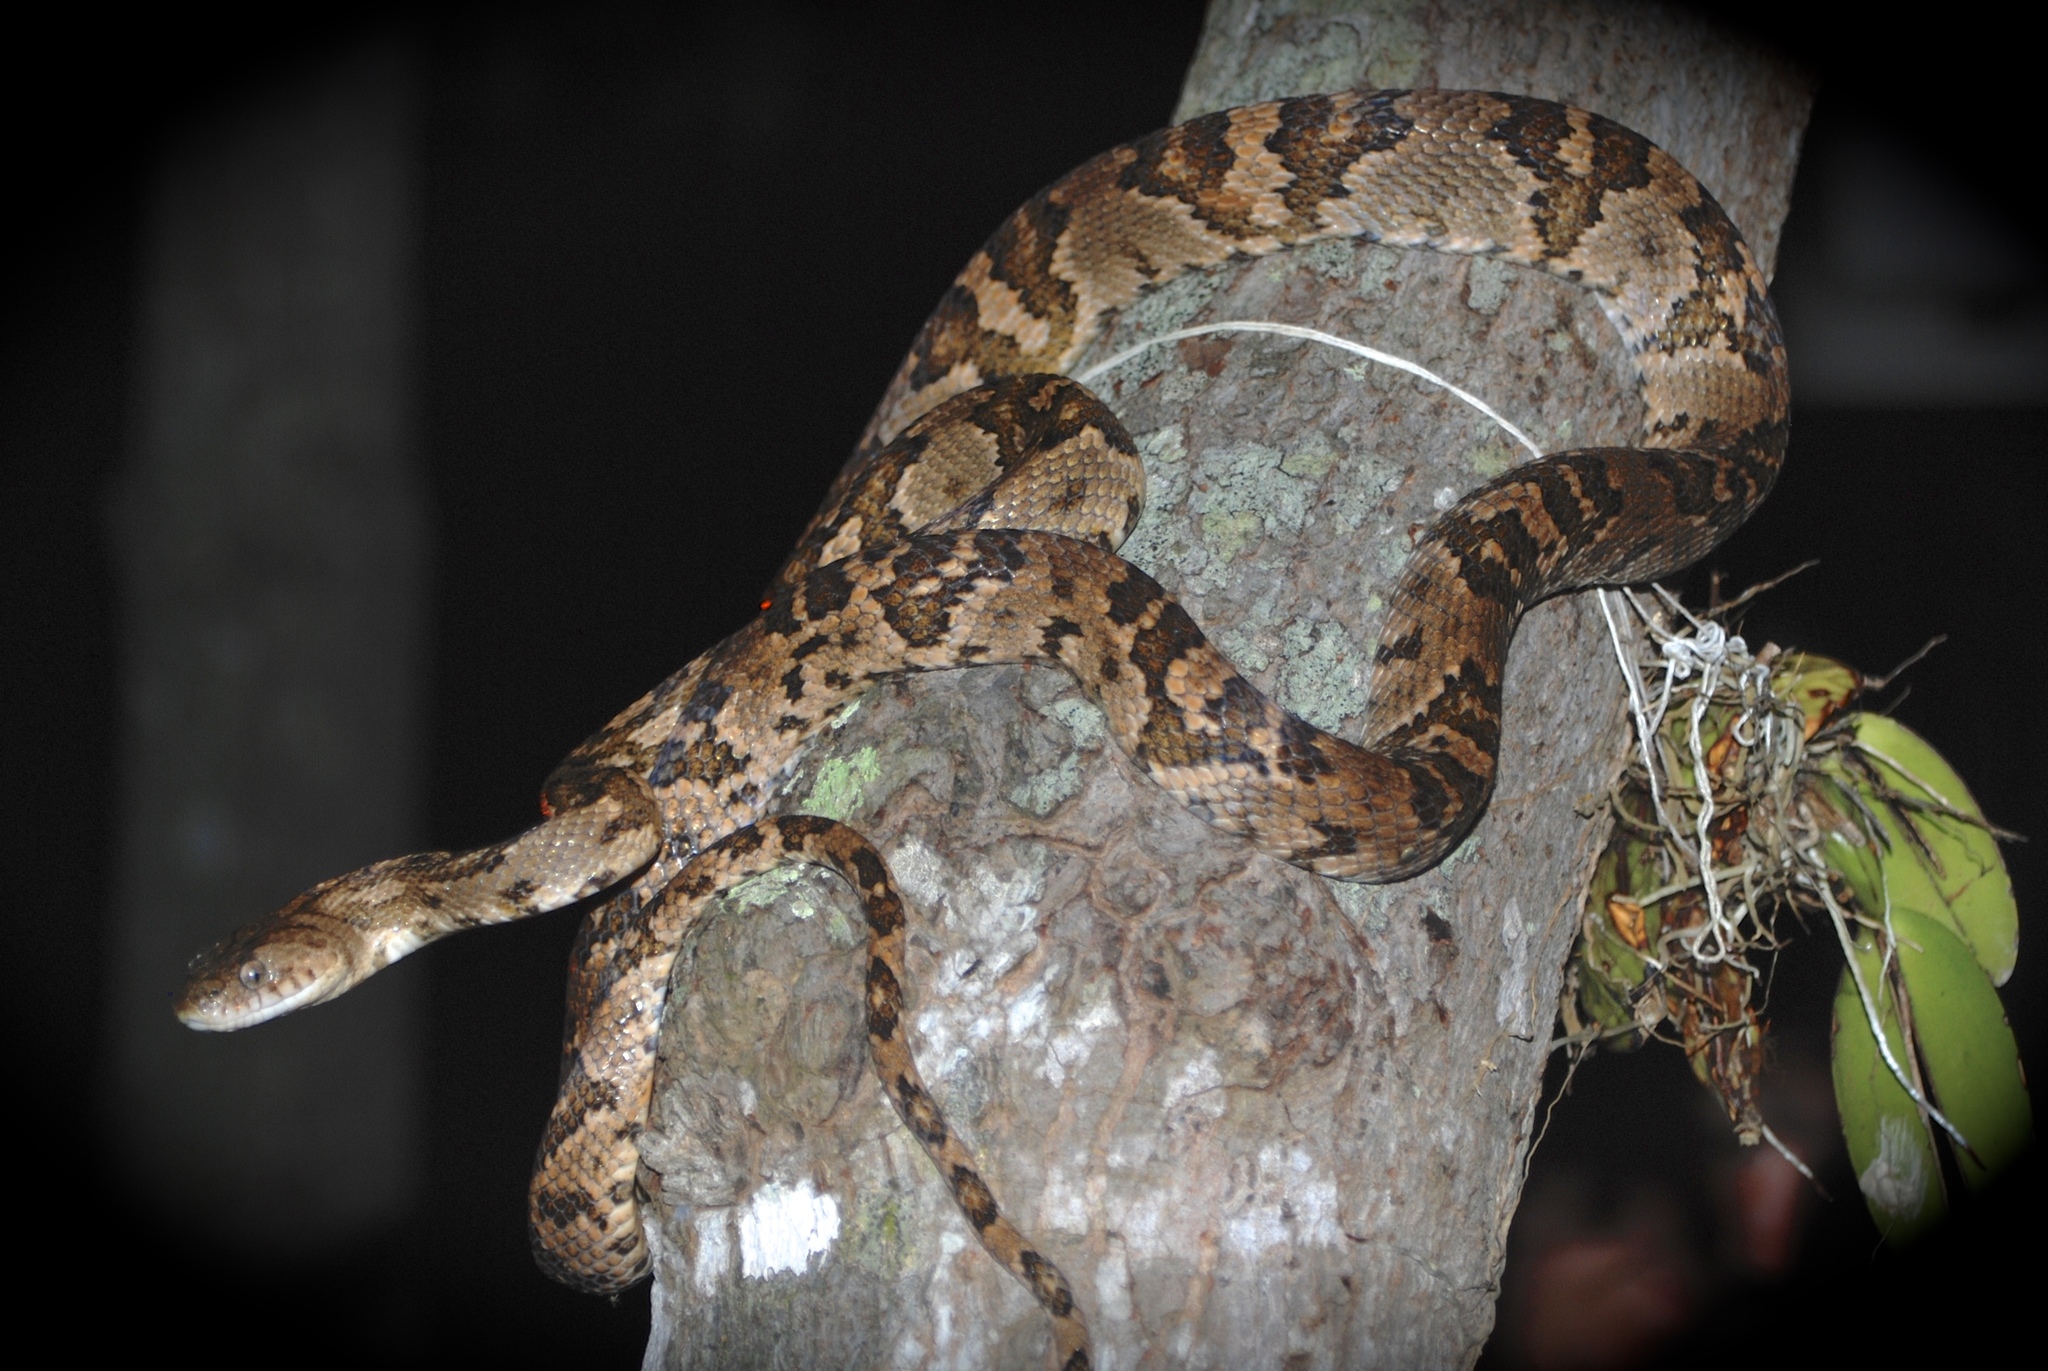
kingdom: Animalia
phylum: Chordata
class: Squamata
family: Colubridae
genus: Trimorphodon
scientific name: Trimorphodon quadruplex
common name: Central american lyre snake
